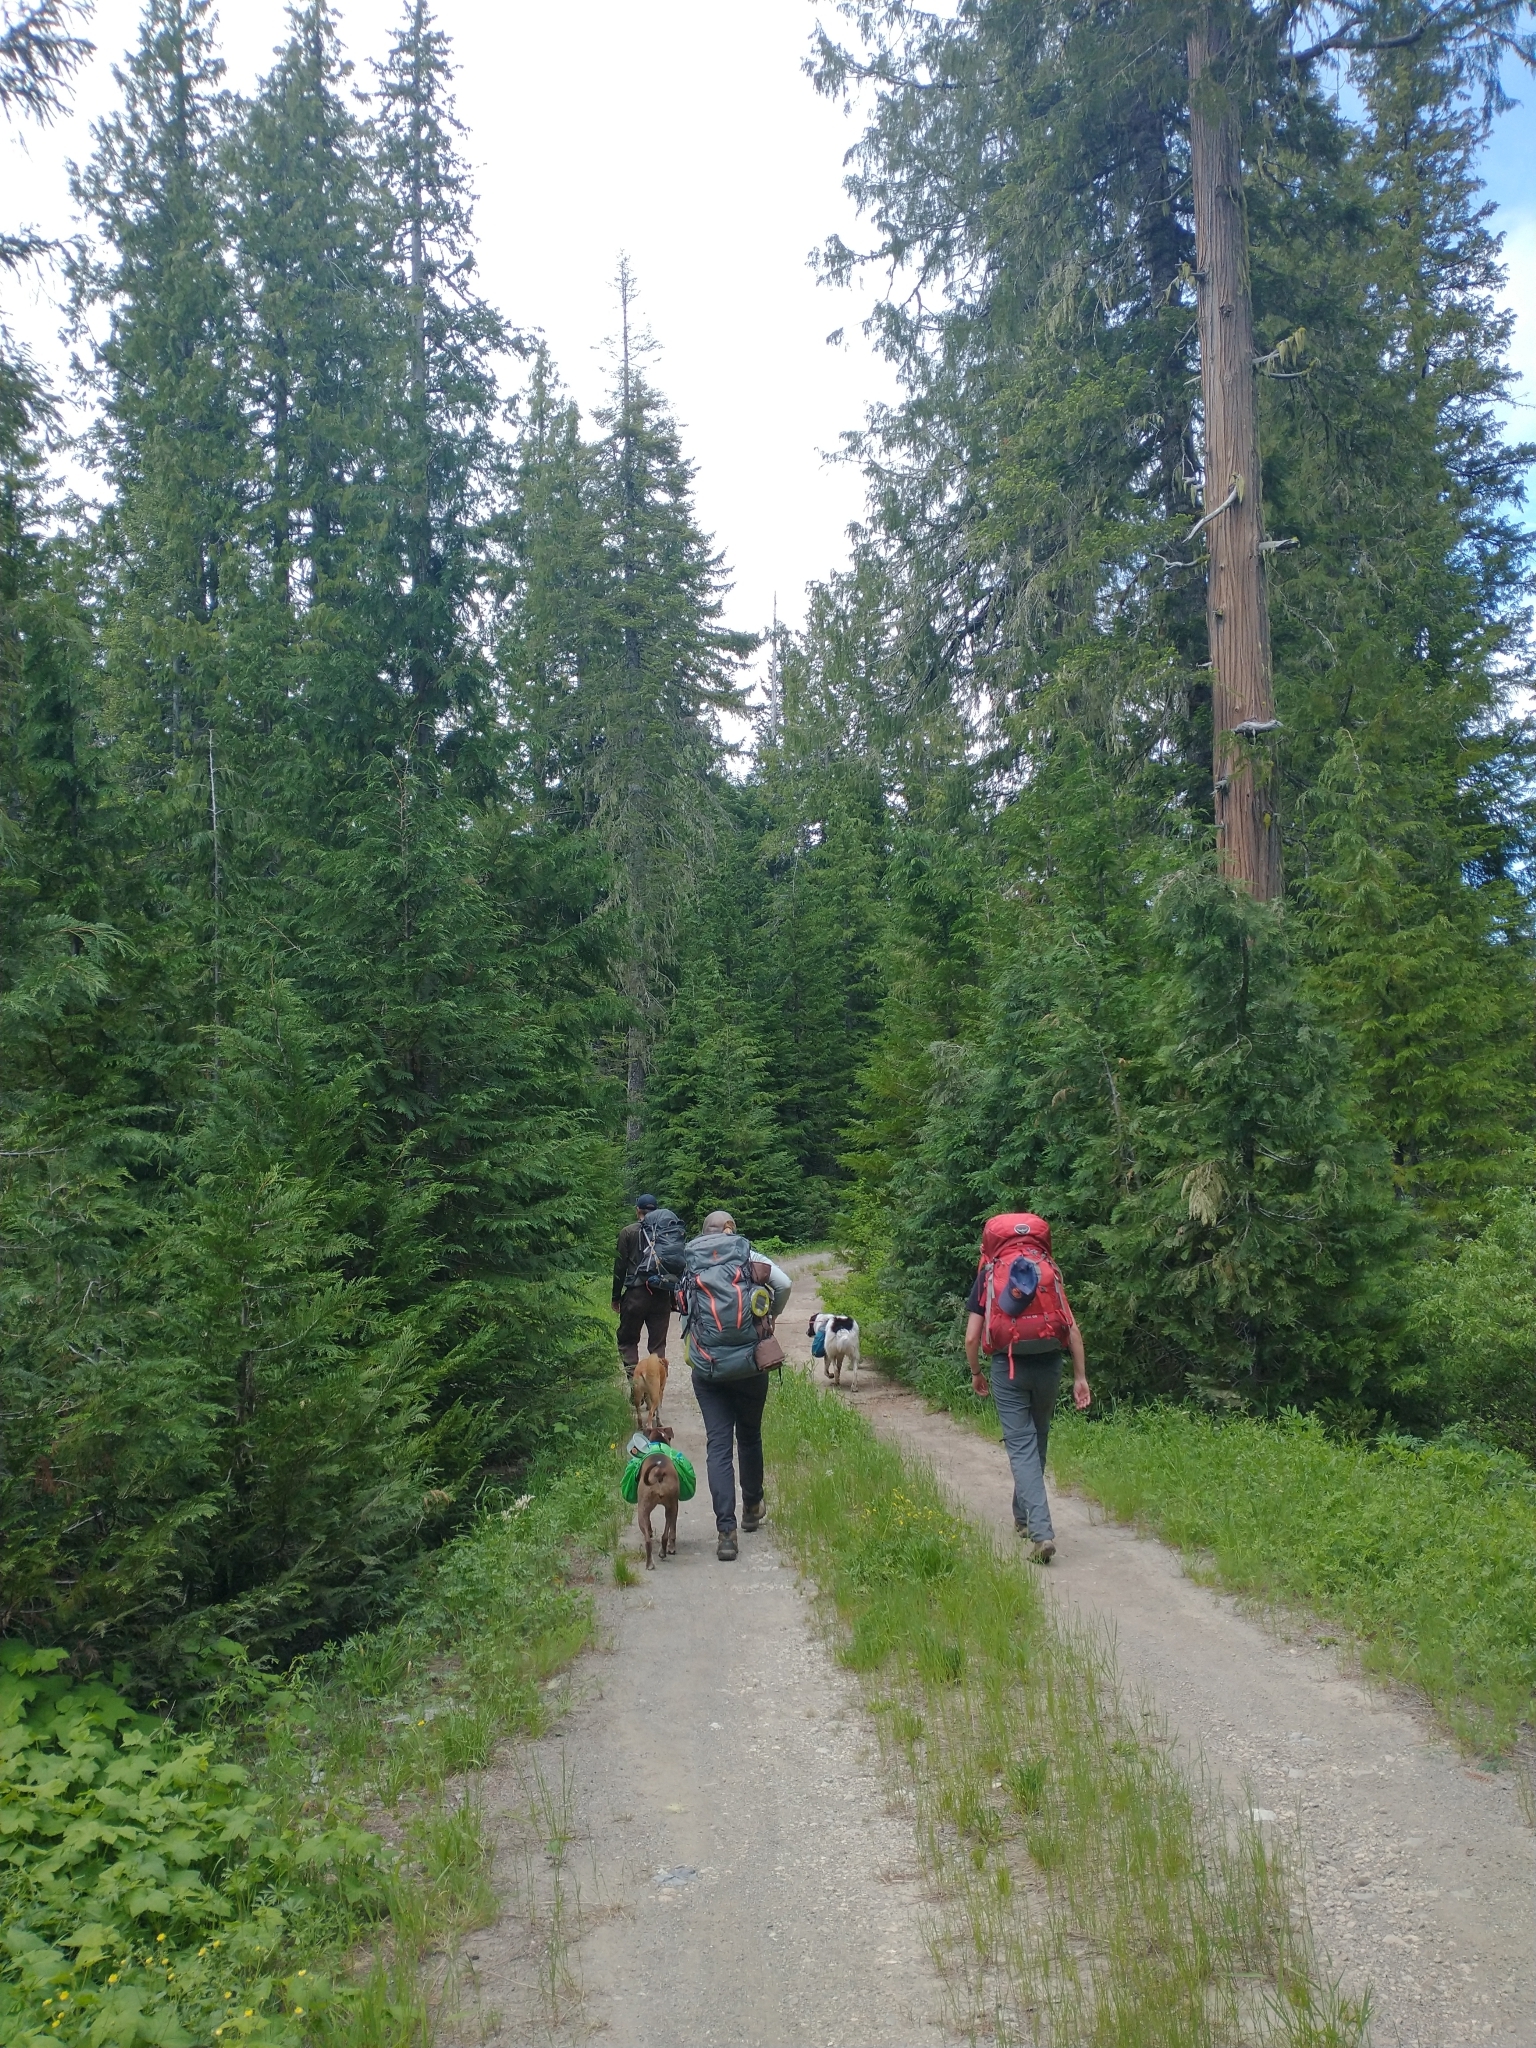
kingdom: Plantae
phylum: Tracheophyta
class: Pinopsida
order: Pinales
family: Cupressaceae
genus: Chamaecyparis
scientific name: Chamaecyparis lawsoniana
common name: Lawson's cypress
